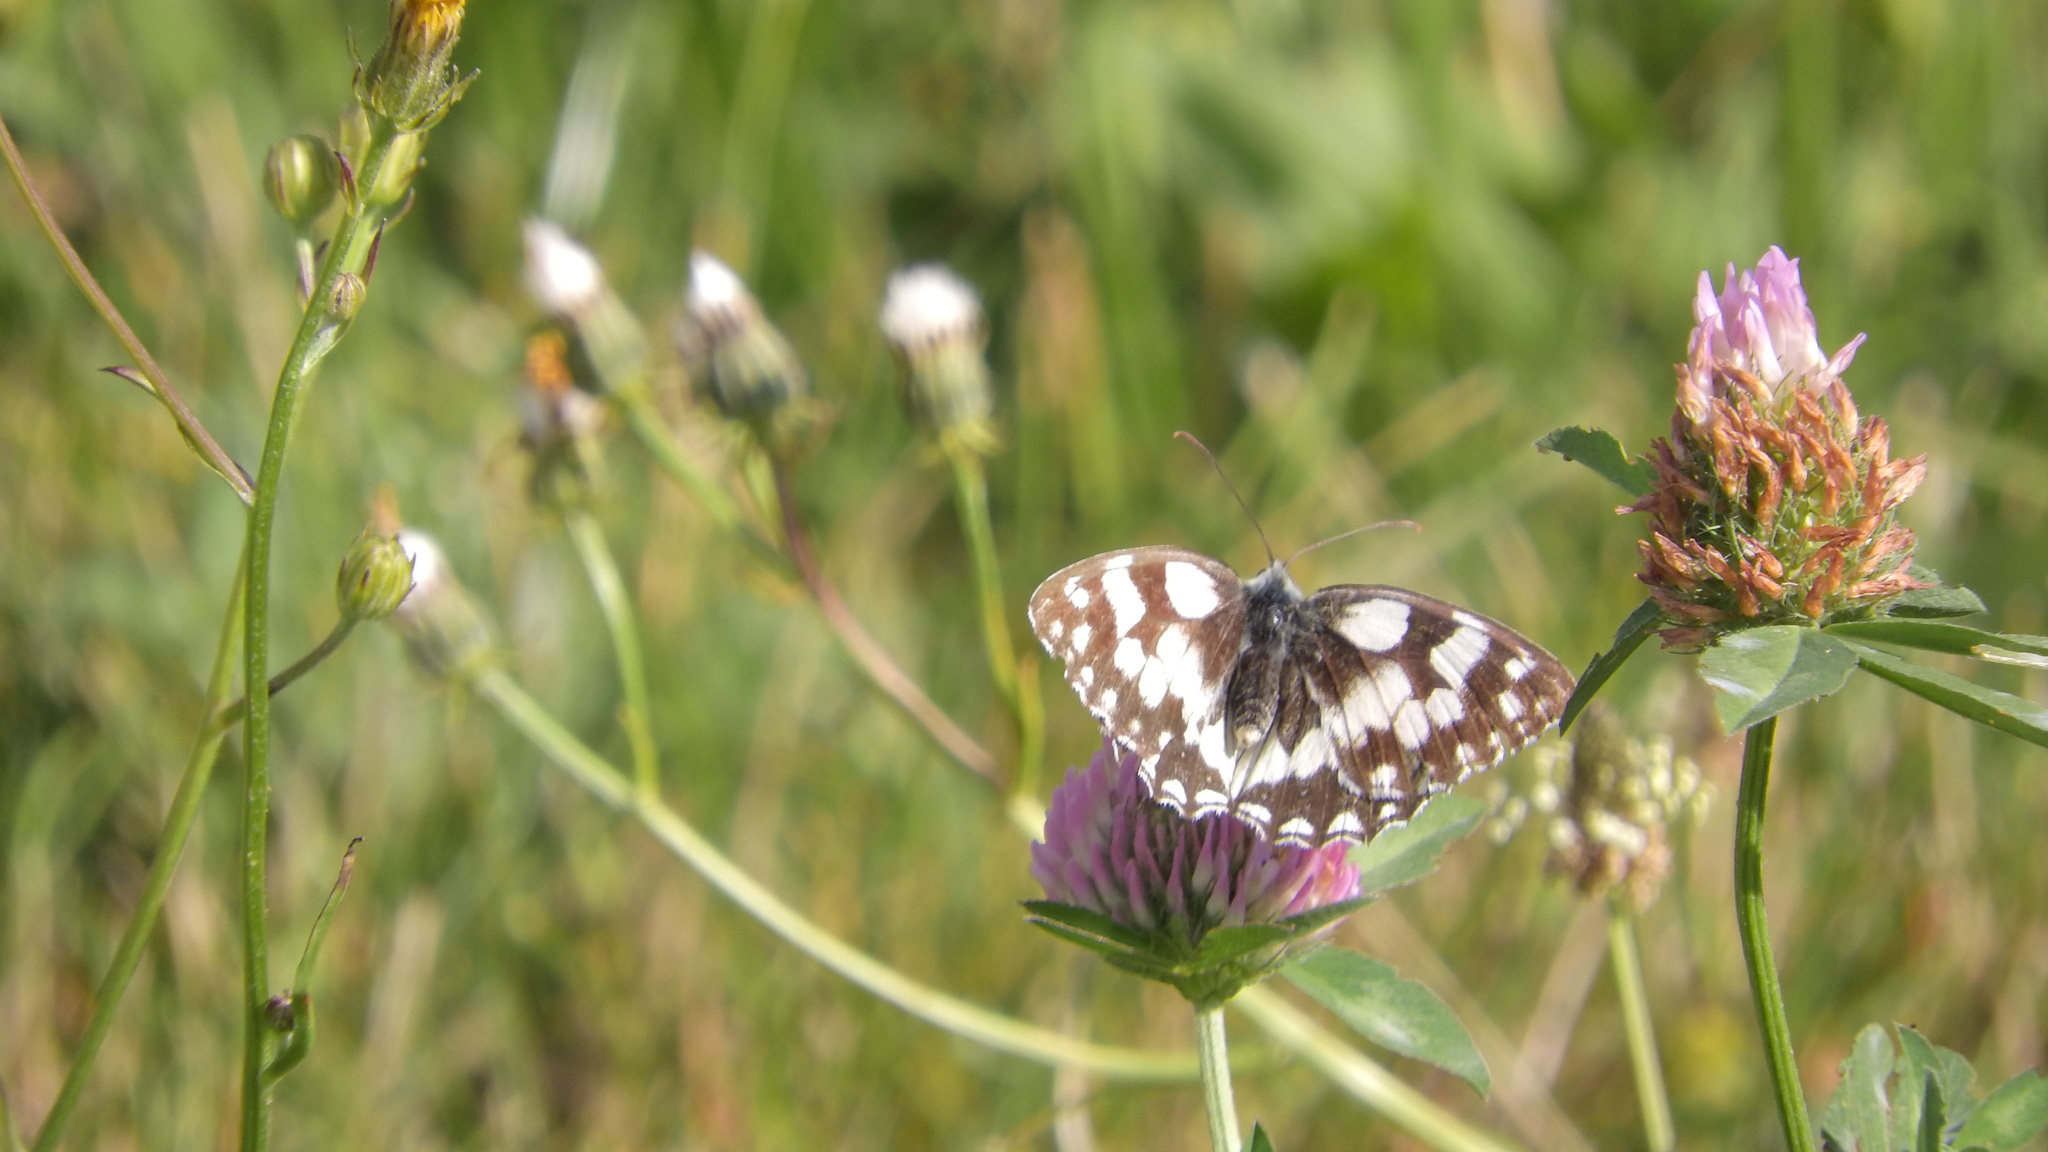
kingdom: Animalia
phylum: Arthropoda
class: Insecta
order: Lepidoptera
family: Nymphalidae
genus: Melanargia
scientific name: Melanargia galathea
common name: Marbled white
